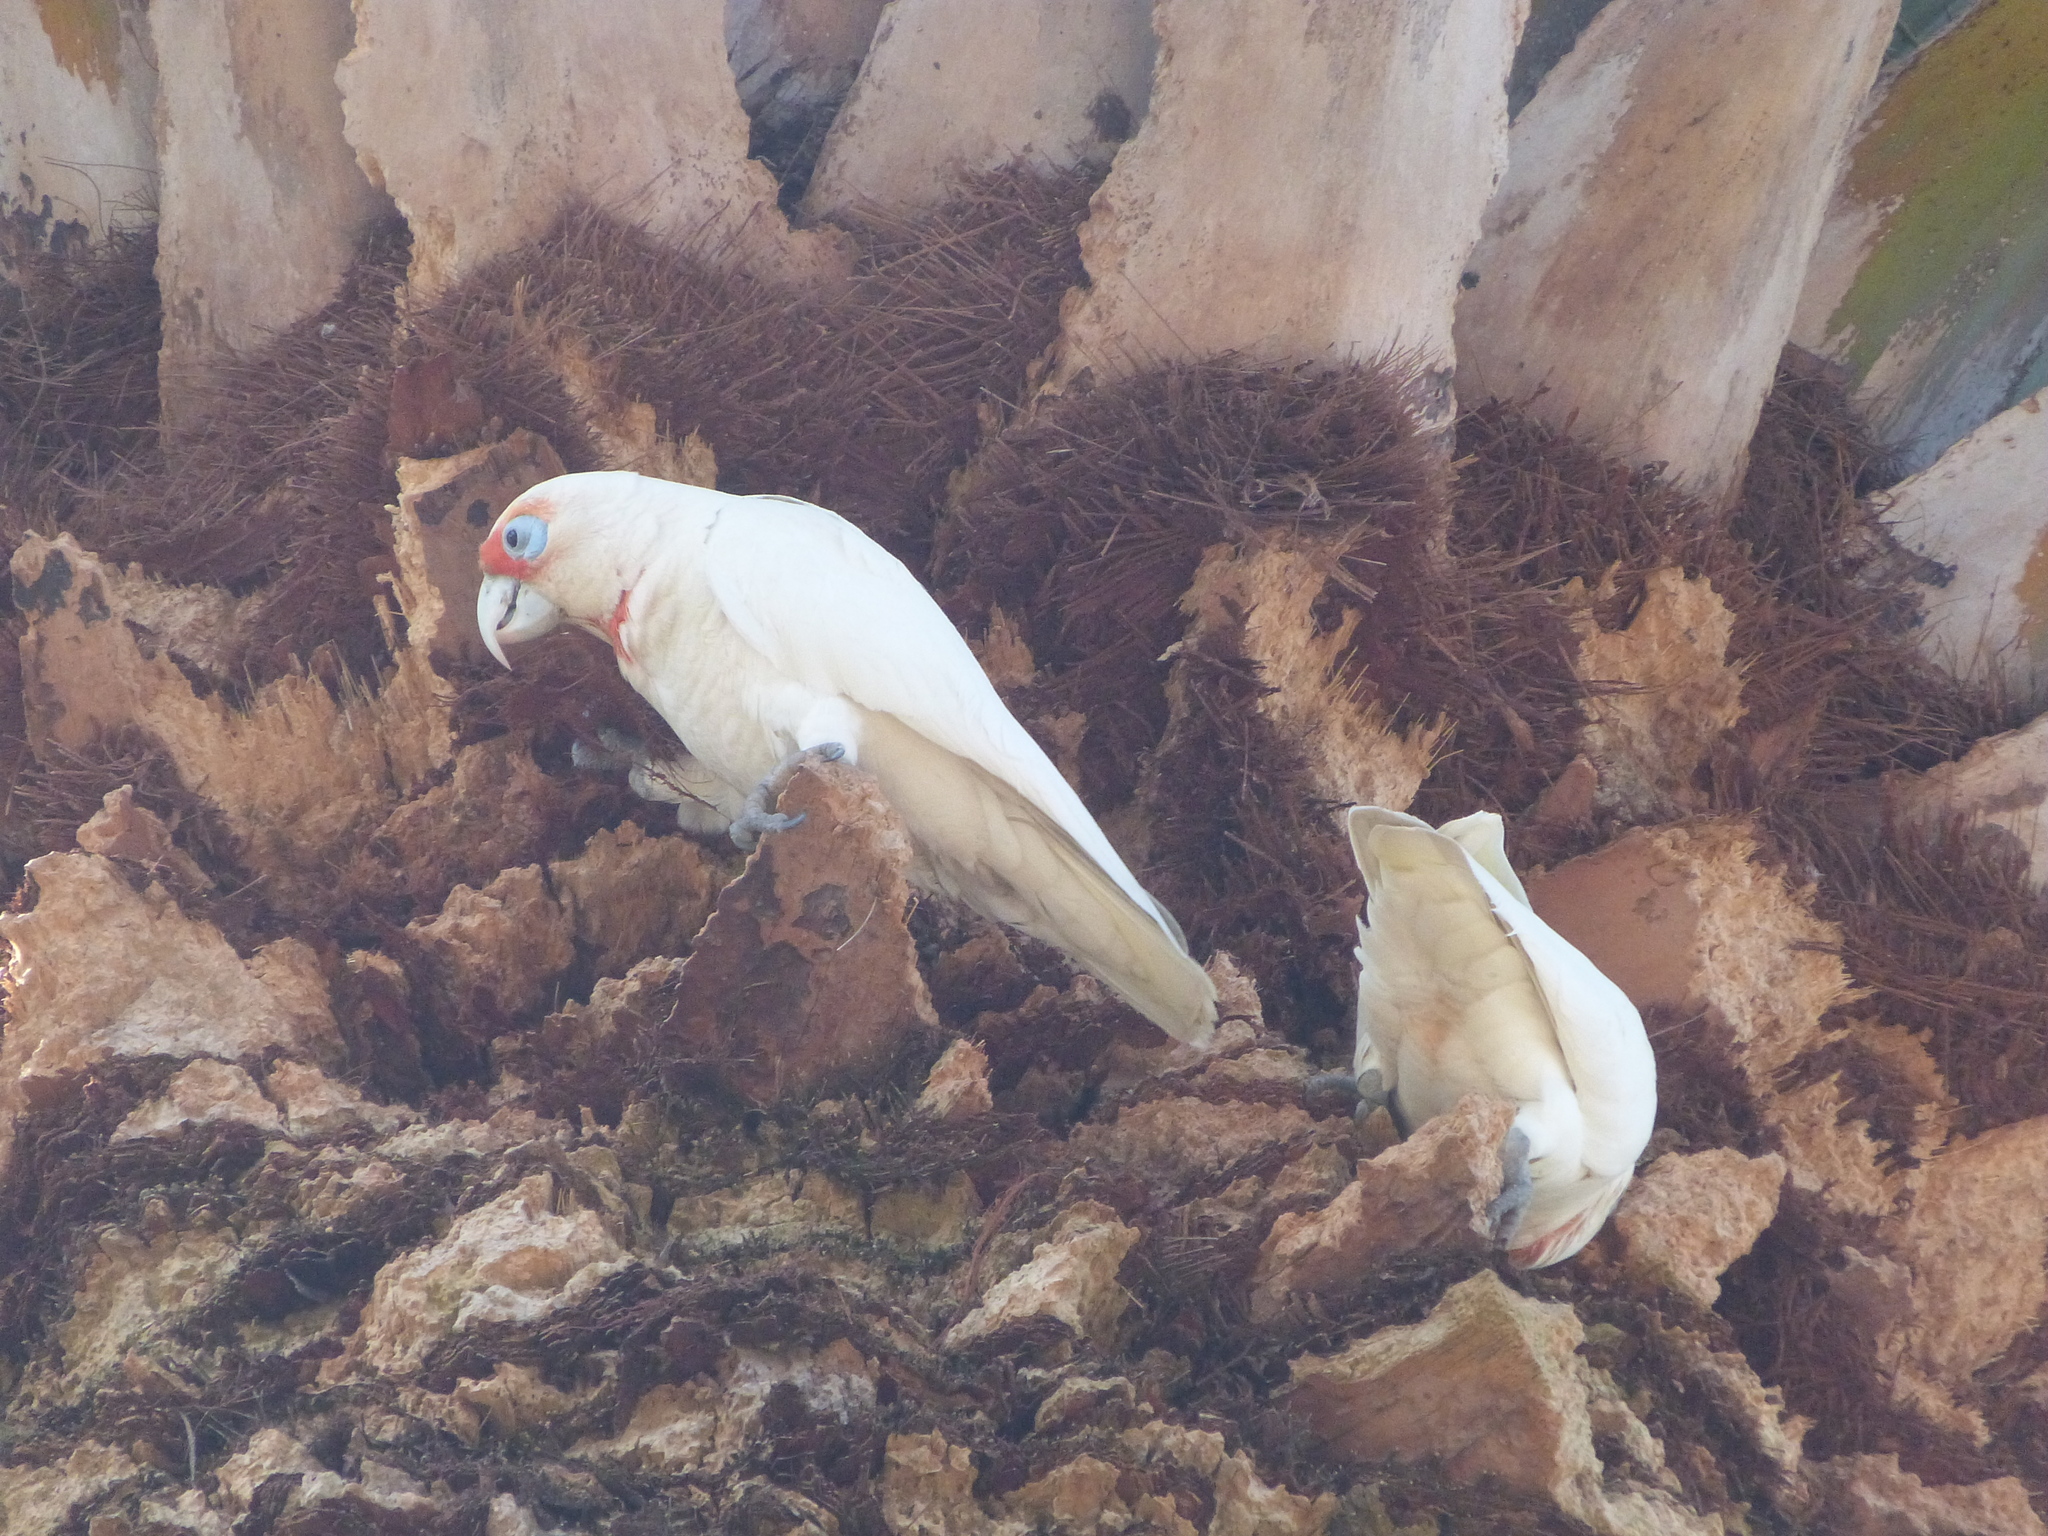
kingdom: Animalia
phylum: Chordata
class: Aves
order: Psittaciformes
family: Psittacidae
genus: Cacatua
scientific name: Cacatua tenuirostris
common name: Long-billed corella
